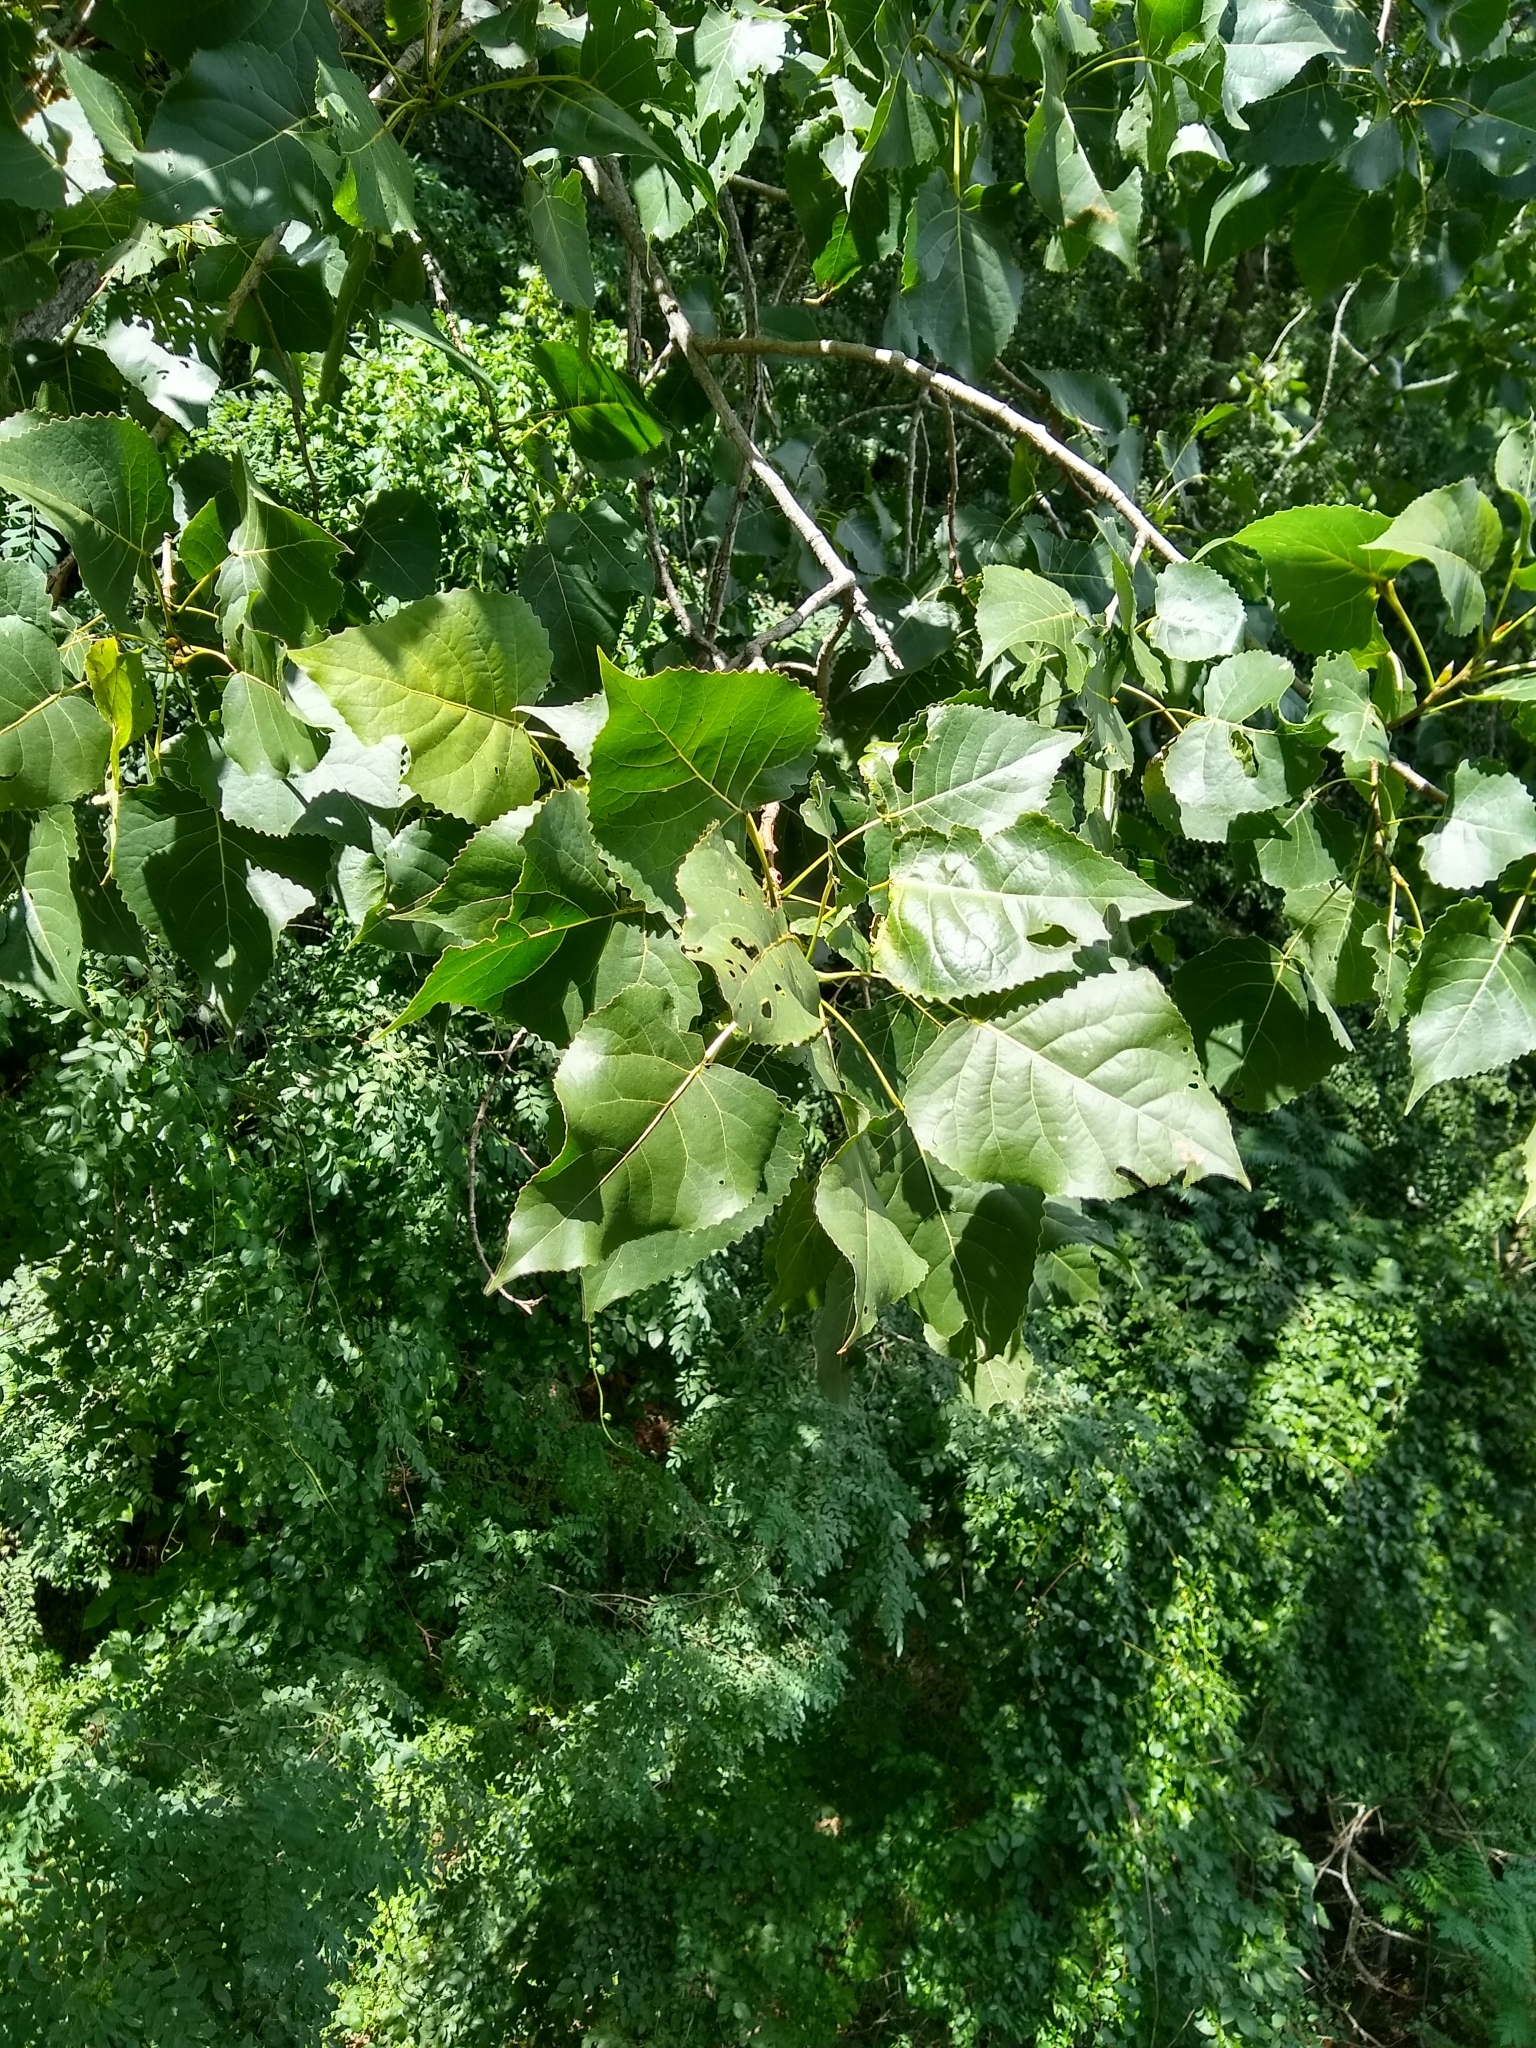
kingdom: Plantae
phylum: Tracheophyta
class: Magnoliopsida
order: Malpighiales
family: Salicaceae
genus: Populus
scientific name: Populus deltoides
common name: Eastern cottonwood
